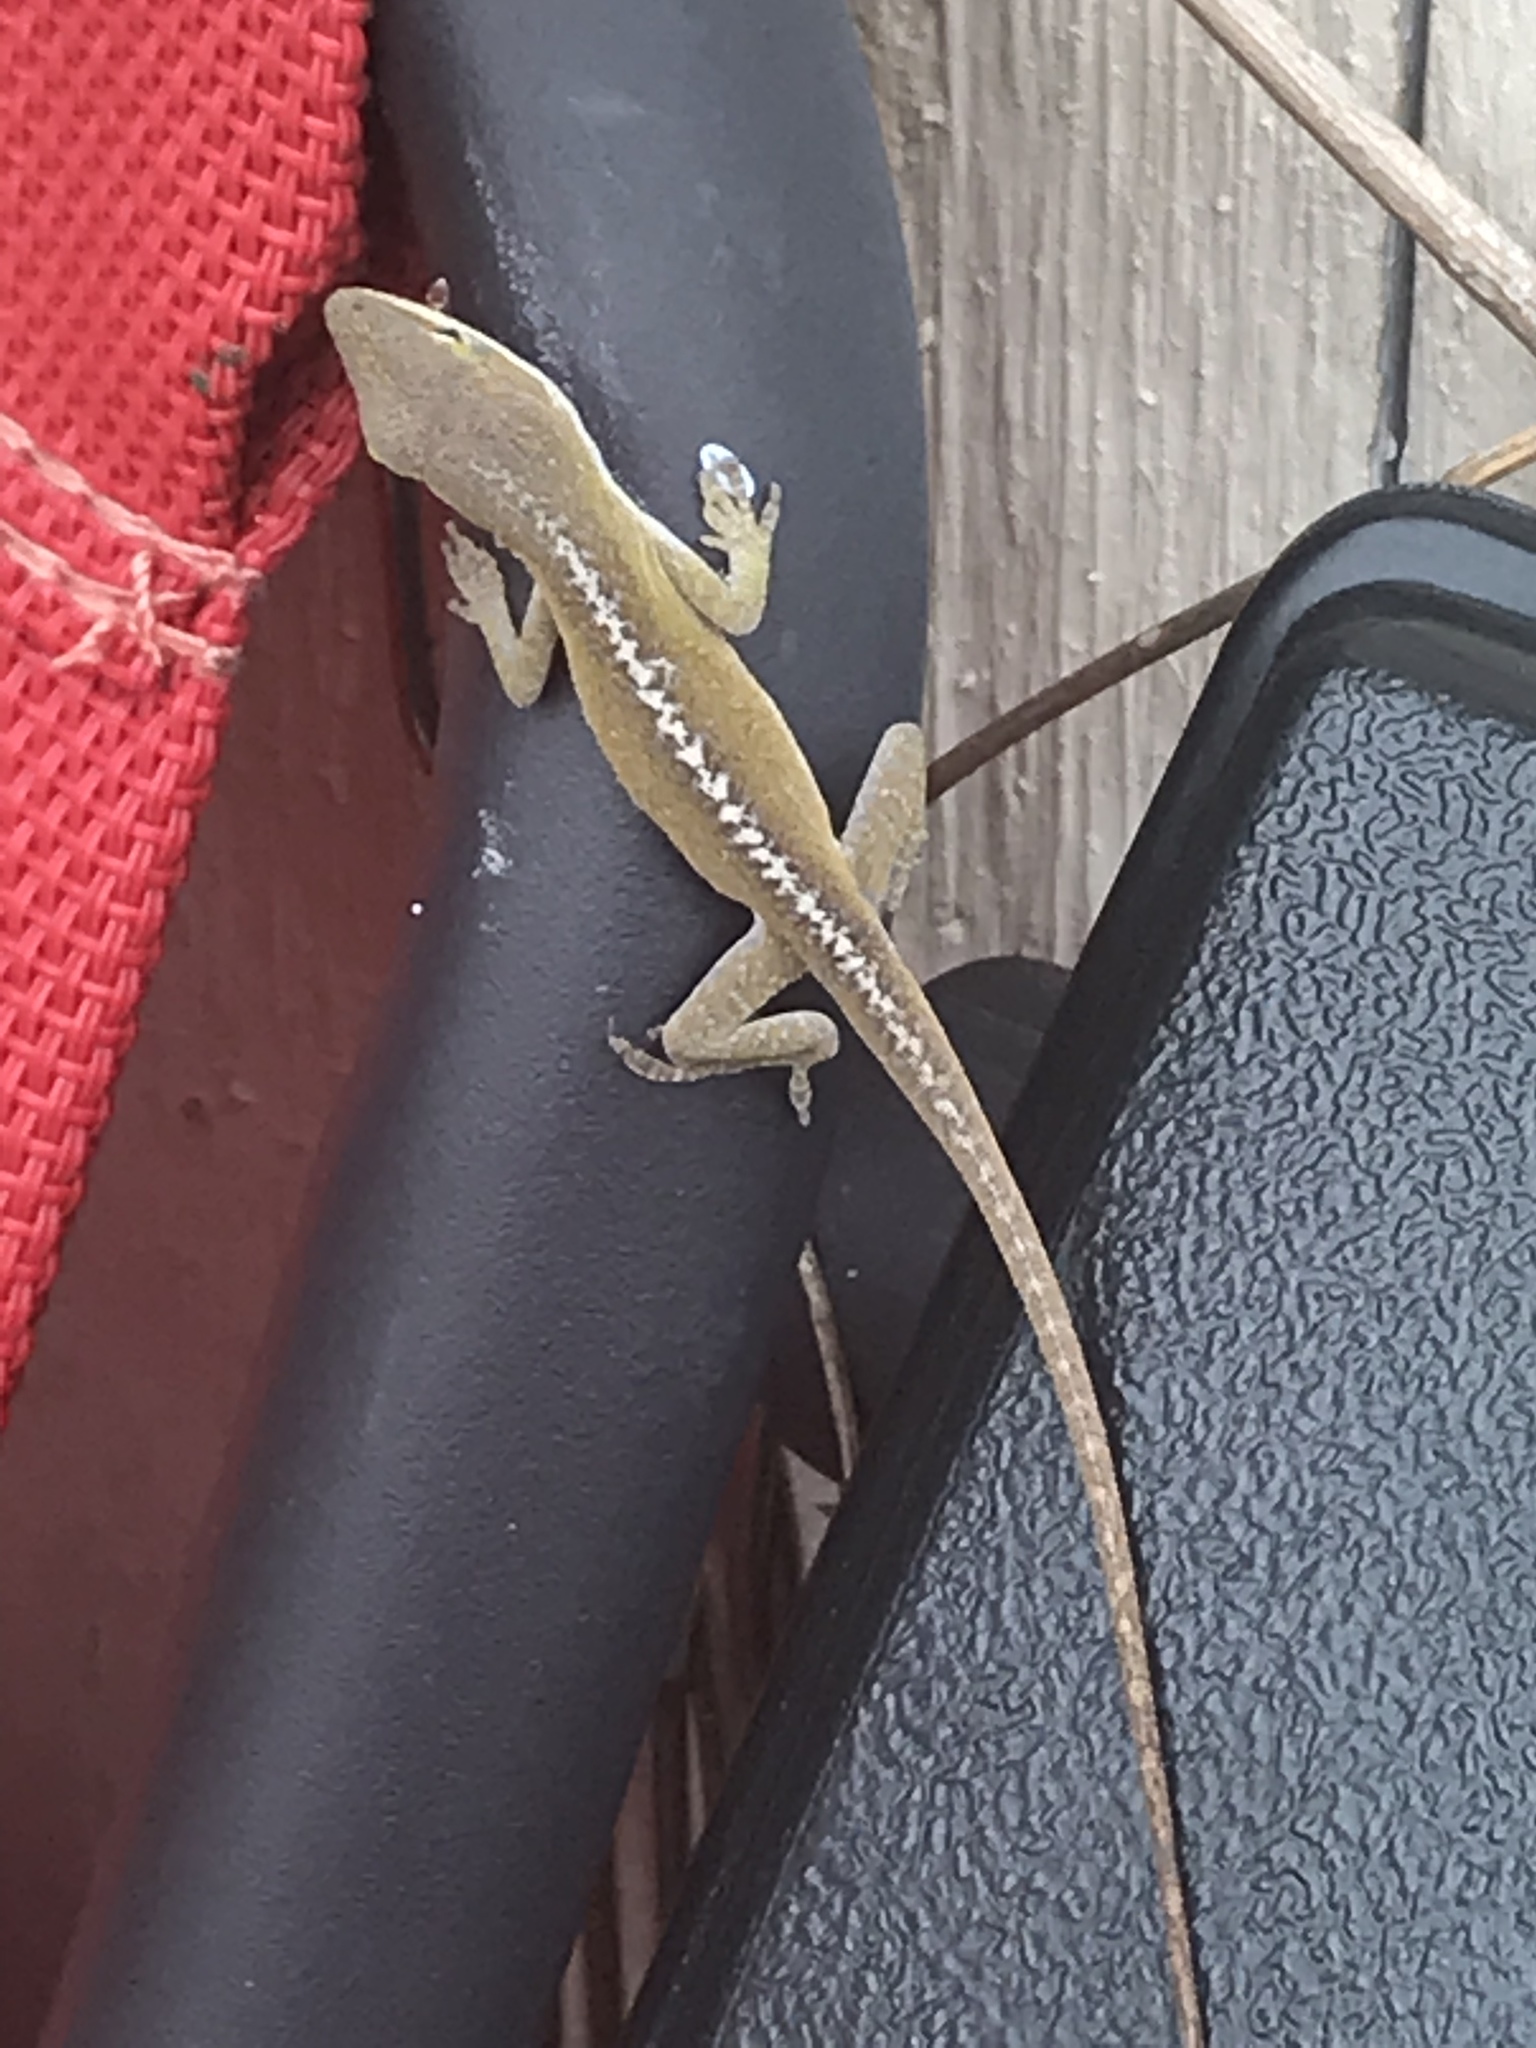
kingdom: Animalia
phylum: Chordata
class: Squamata
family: Dactyloidae
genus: Anolis
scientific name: Anolis carolinensis
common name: Green anole
